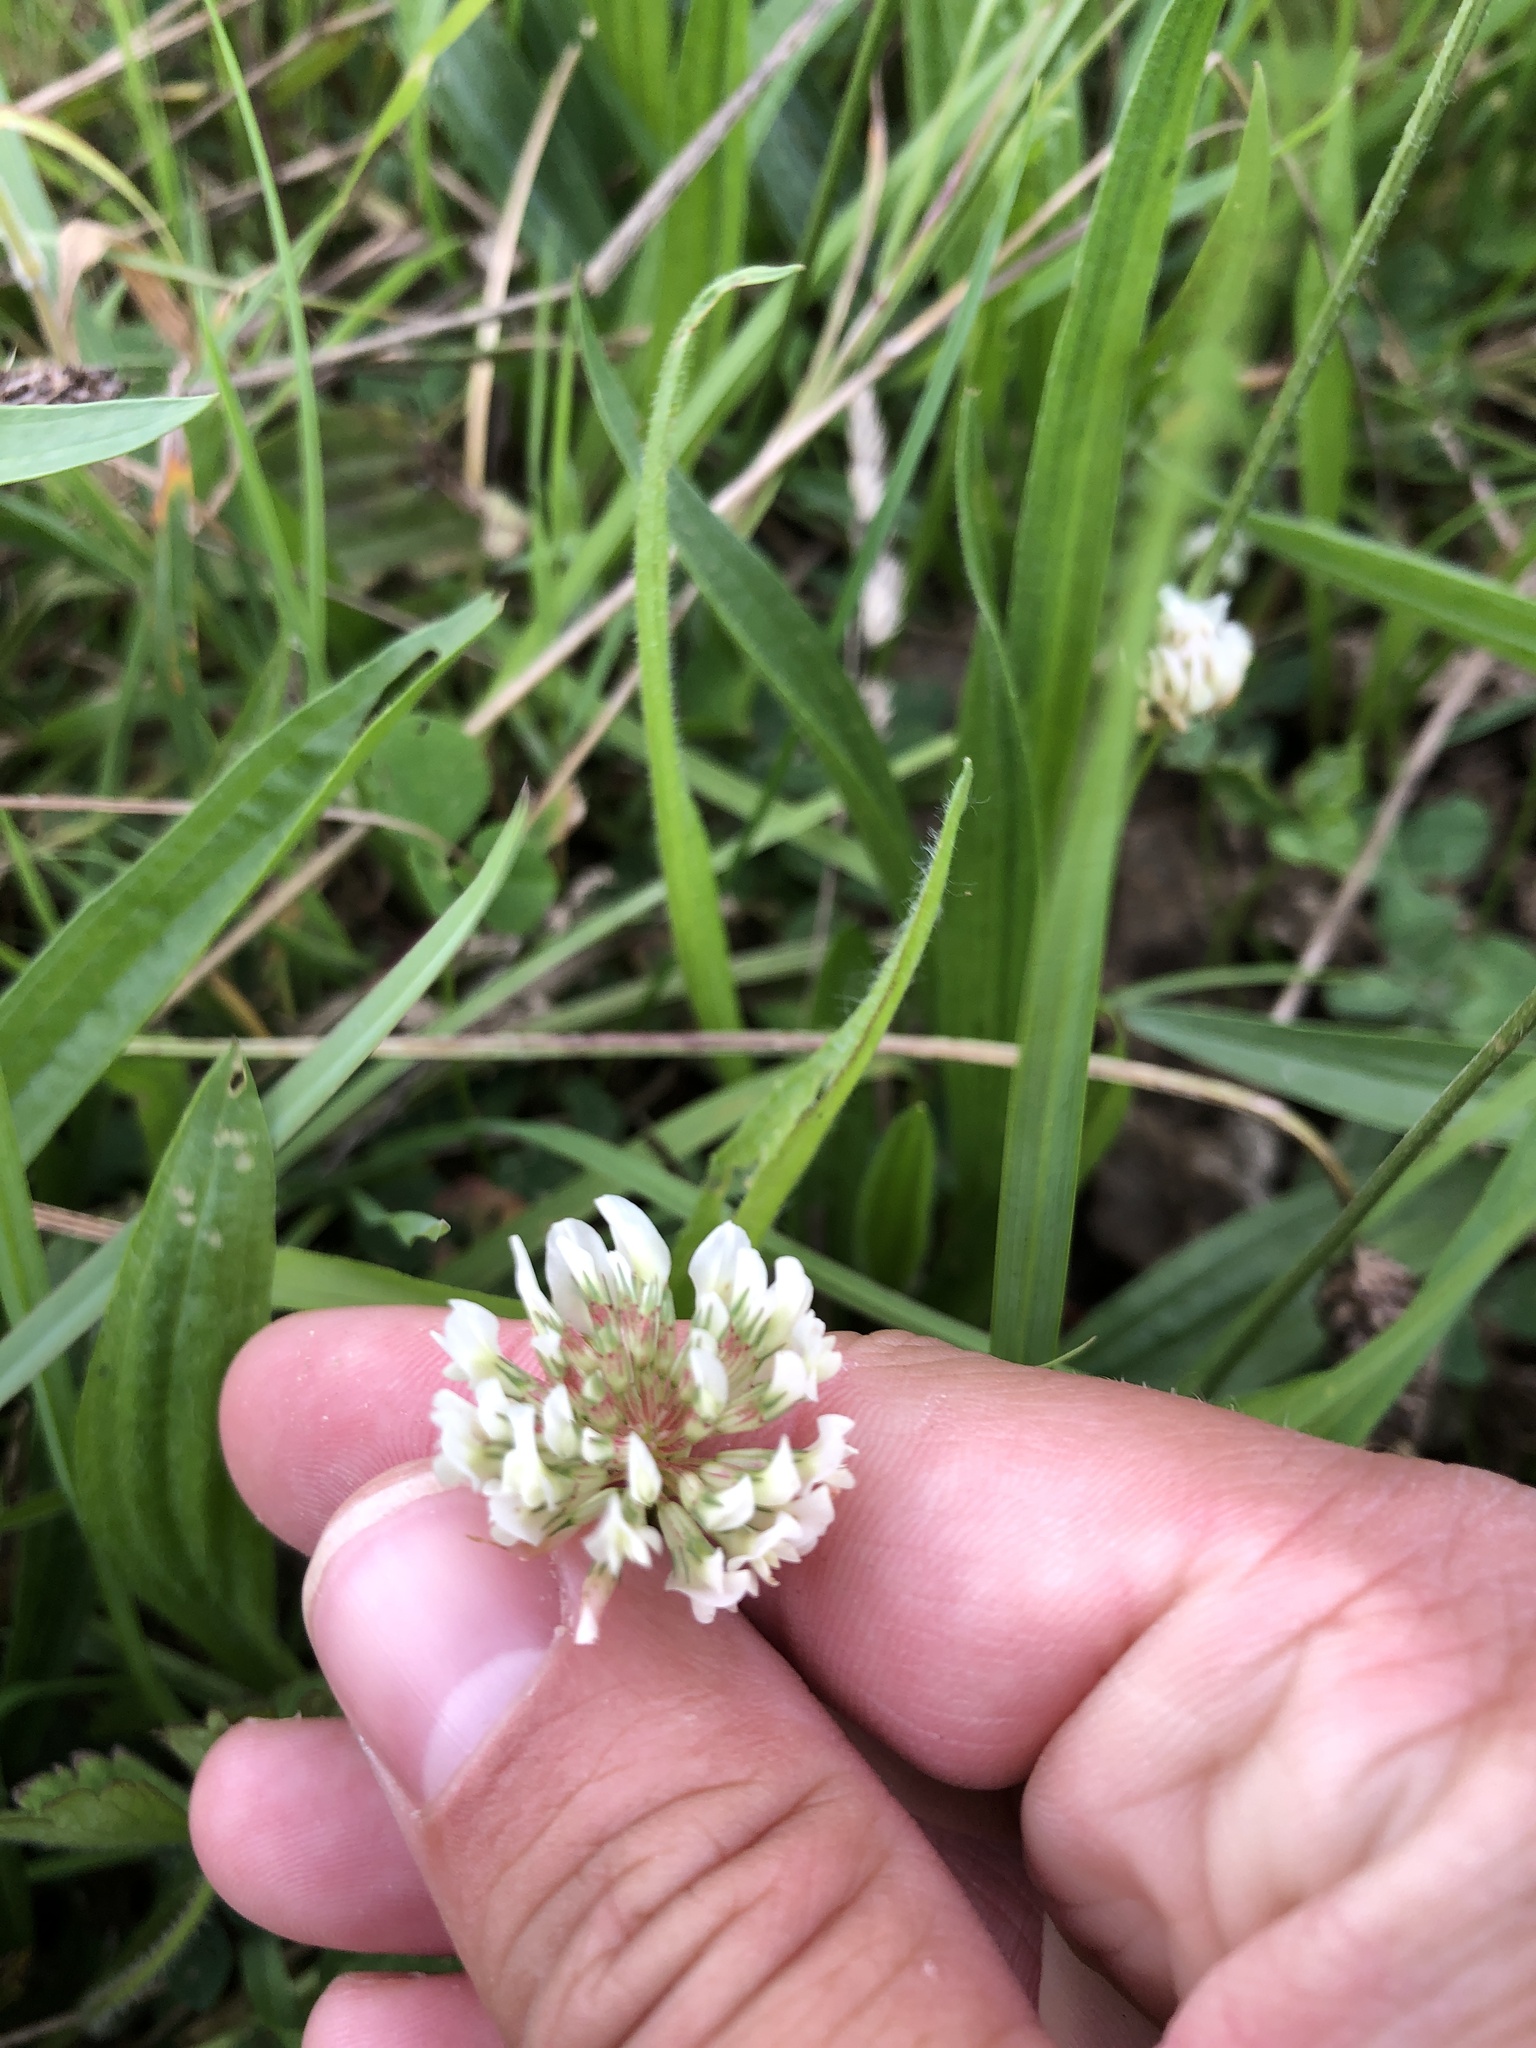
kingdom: Plantae
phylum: Tracheophyta
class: Magnoliopsida
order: Fabales
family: Fabaceae
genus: Trifolium
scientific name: Trifolium repens
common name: White clover
